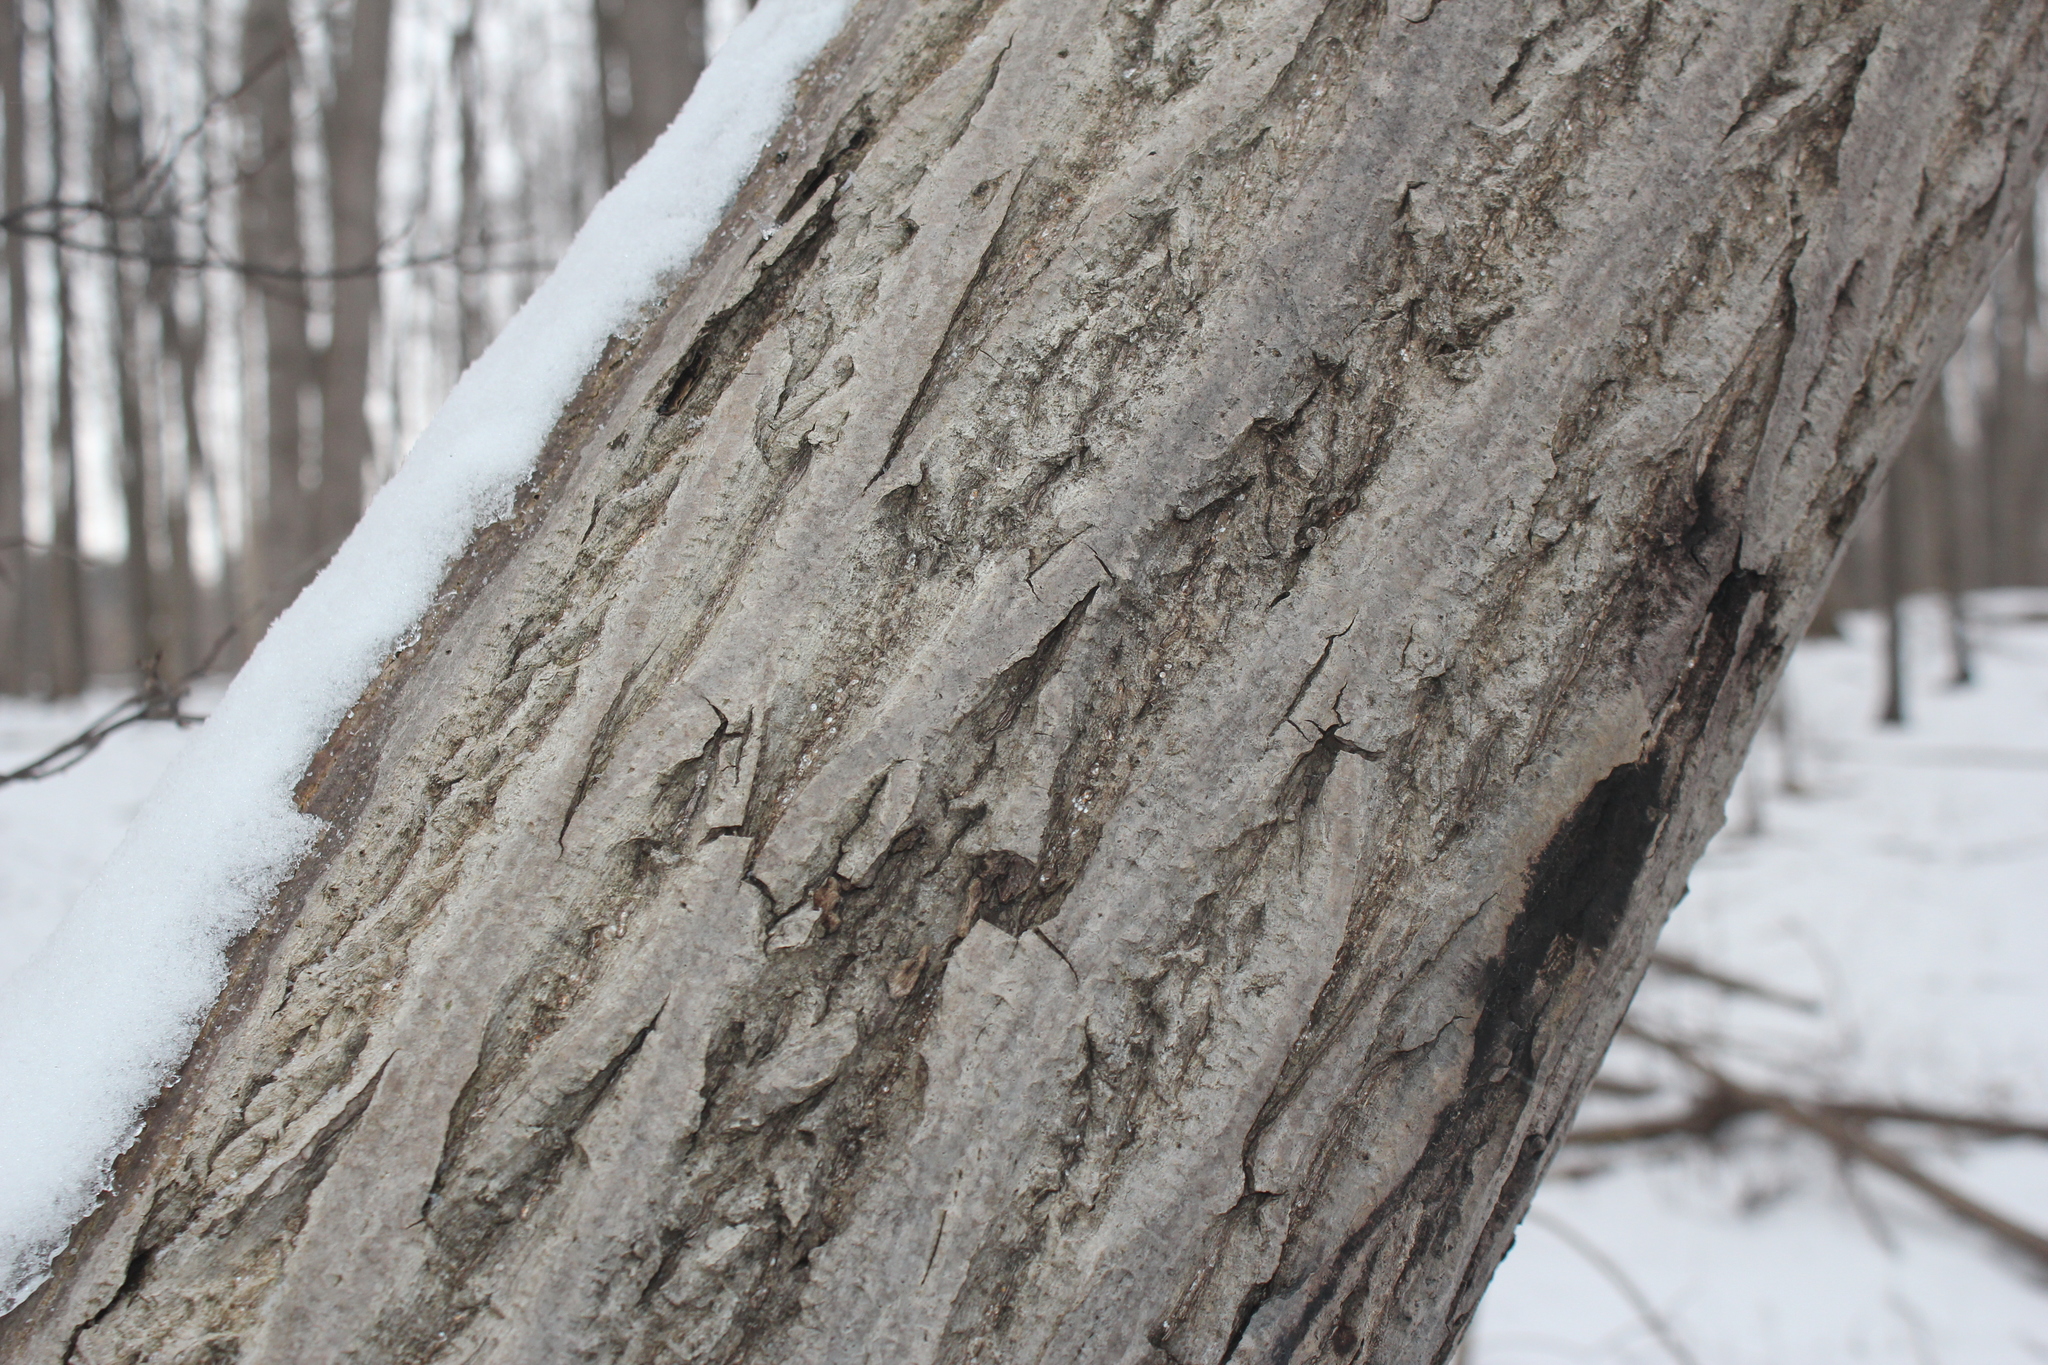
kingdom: Plantae
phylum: Tracheophyta
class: Magnoliopsida
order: Fagales
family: Juglandaceae
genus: Juglans
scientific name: Juglans cinerea
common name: Butternut
